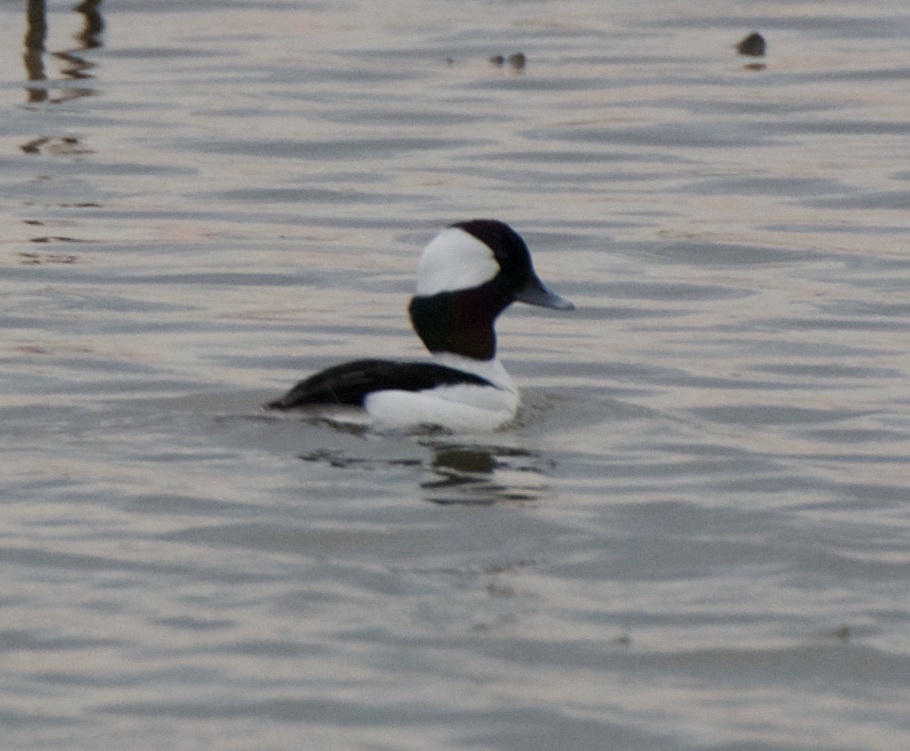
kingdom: Animalia
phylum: Chordata
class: Aves
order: Anseriformes
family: Anatidae
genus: Bucephala
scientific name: Bucephala albeola
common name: Bufflehead
